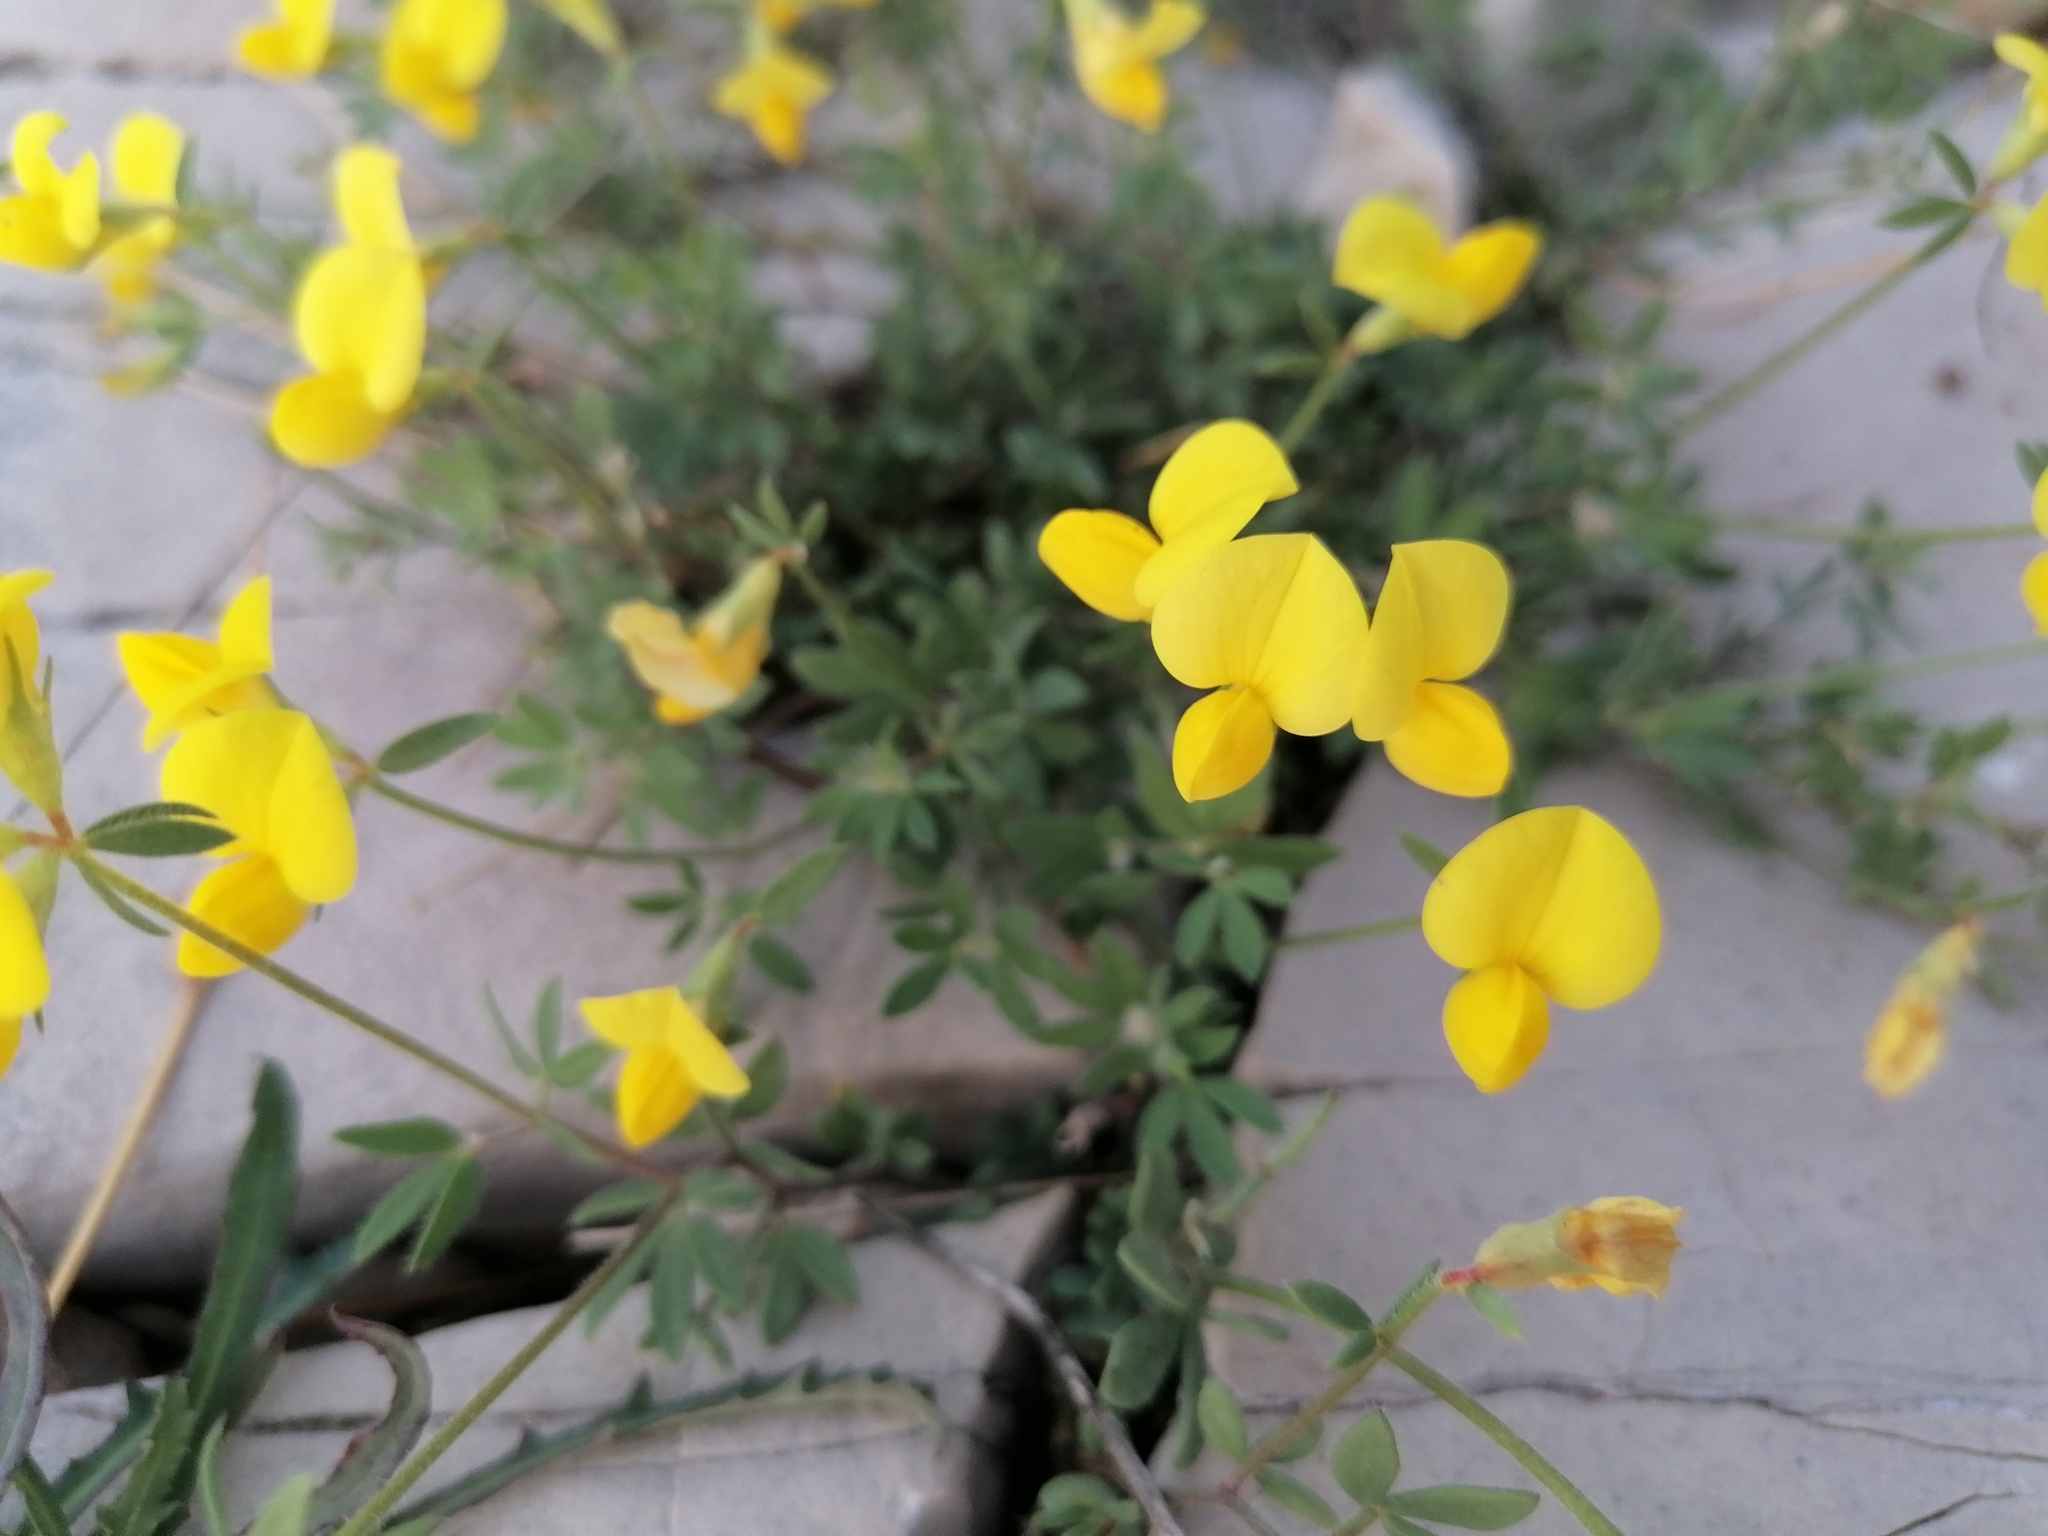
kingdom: Plantae
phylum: Tracheophyta
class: Magnoliopsida
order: Fabales
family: Fabaceae
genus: Lotus
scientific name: Lotus cytisoides
